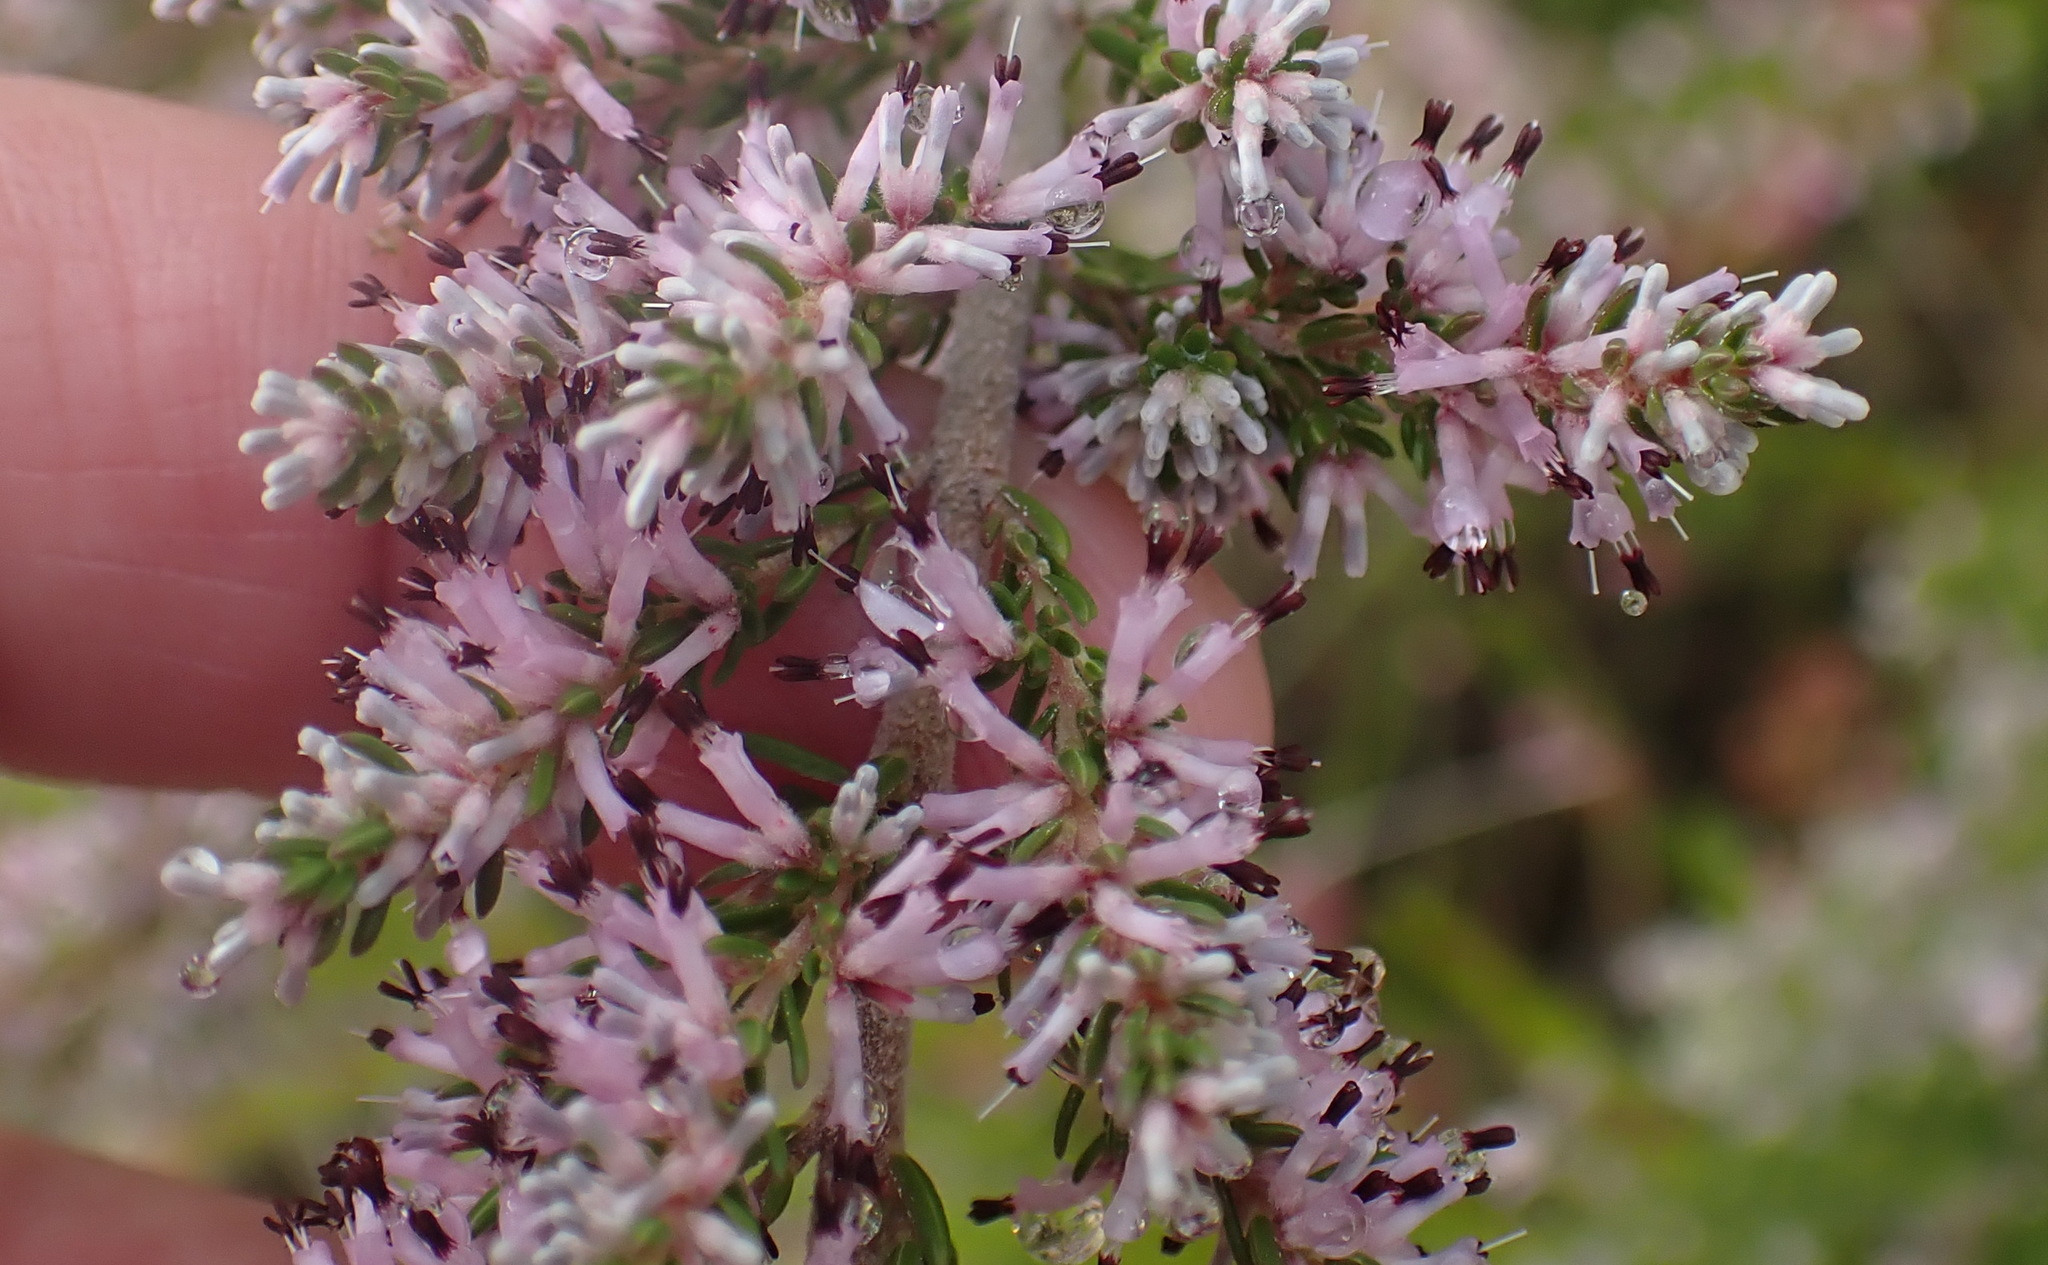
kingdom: Plantae
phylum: Tracheophyta
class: Magnoliopsida
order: Ericales
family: Ericaceae
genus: Erica
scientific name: Erica uberiflora
